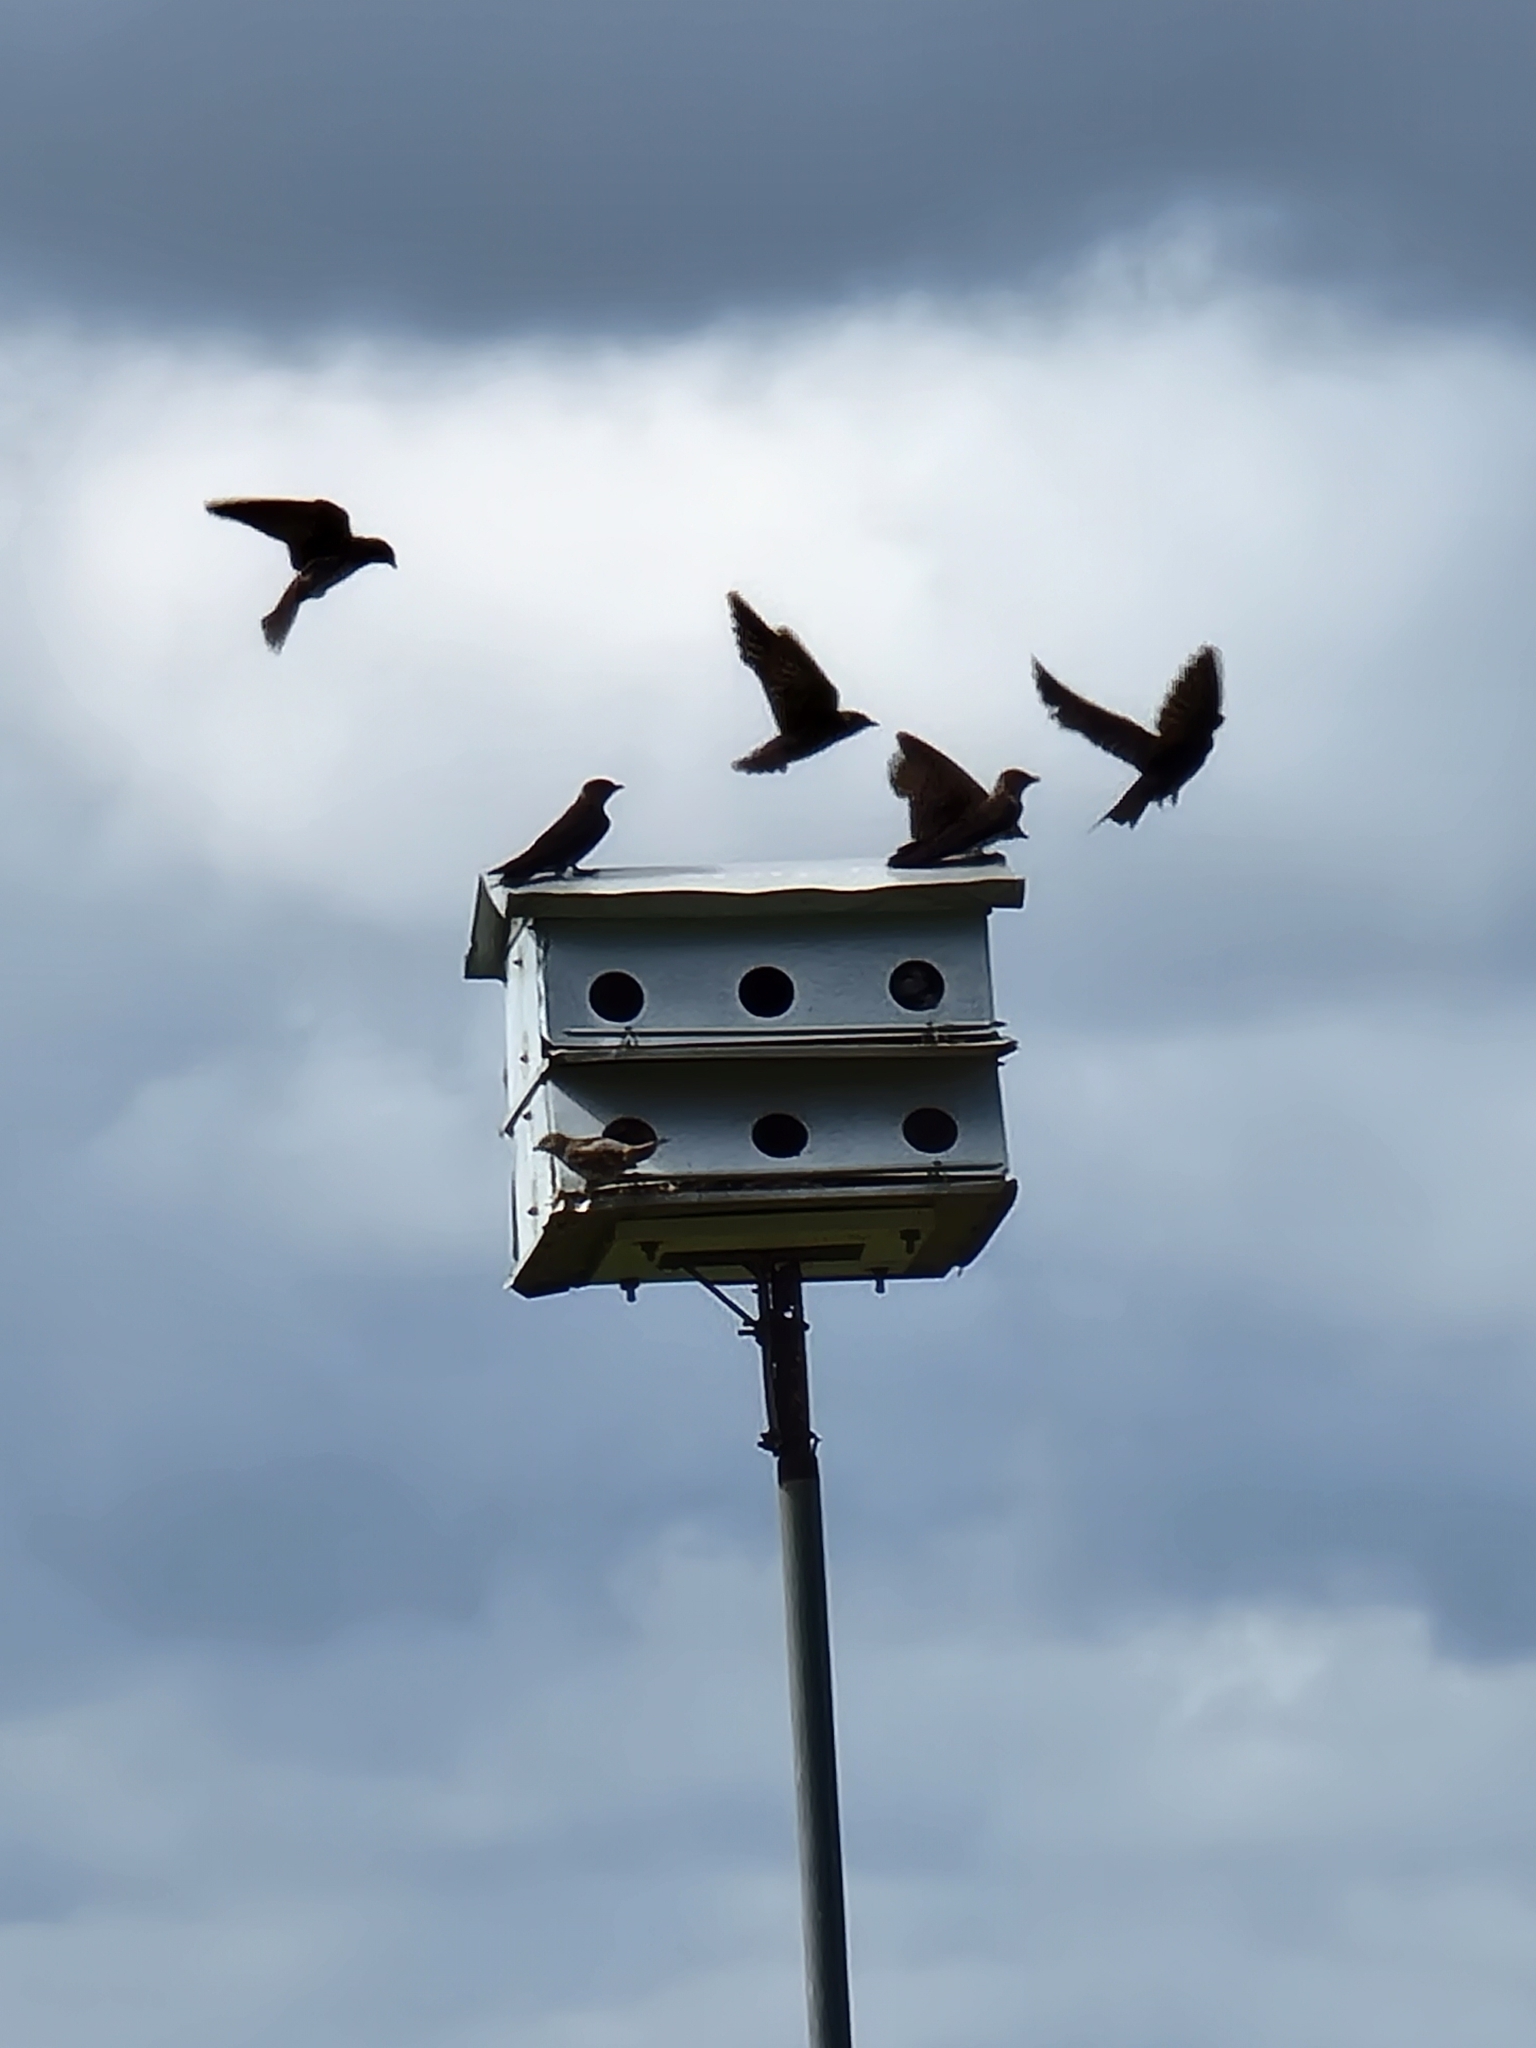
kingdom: Animalia
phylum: Chordata
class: Aves
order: Passeriformes
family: Hirundinidae
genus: Progne
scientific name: Progne subis
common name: Purple martin
